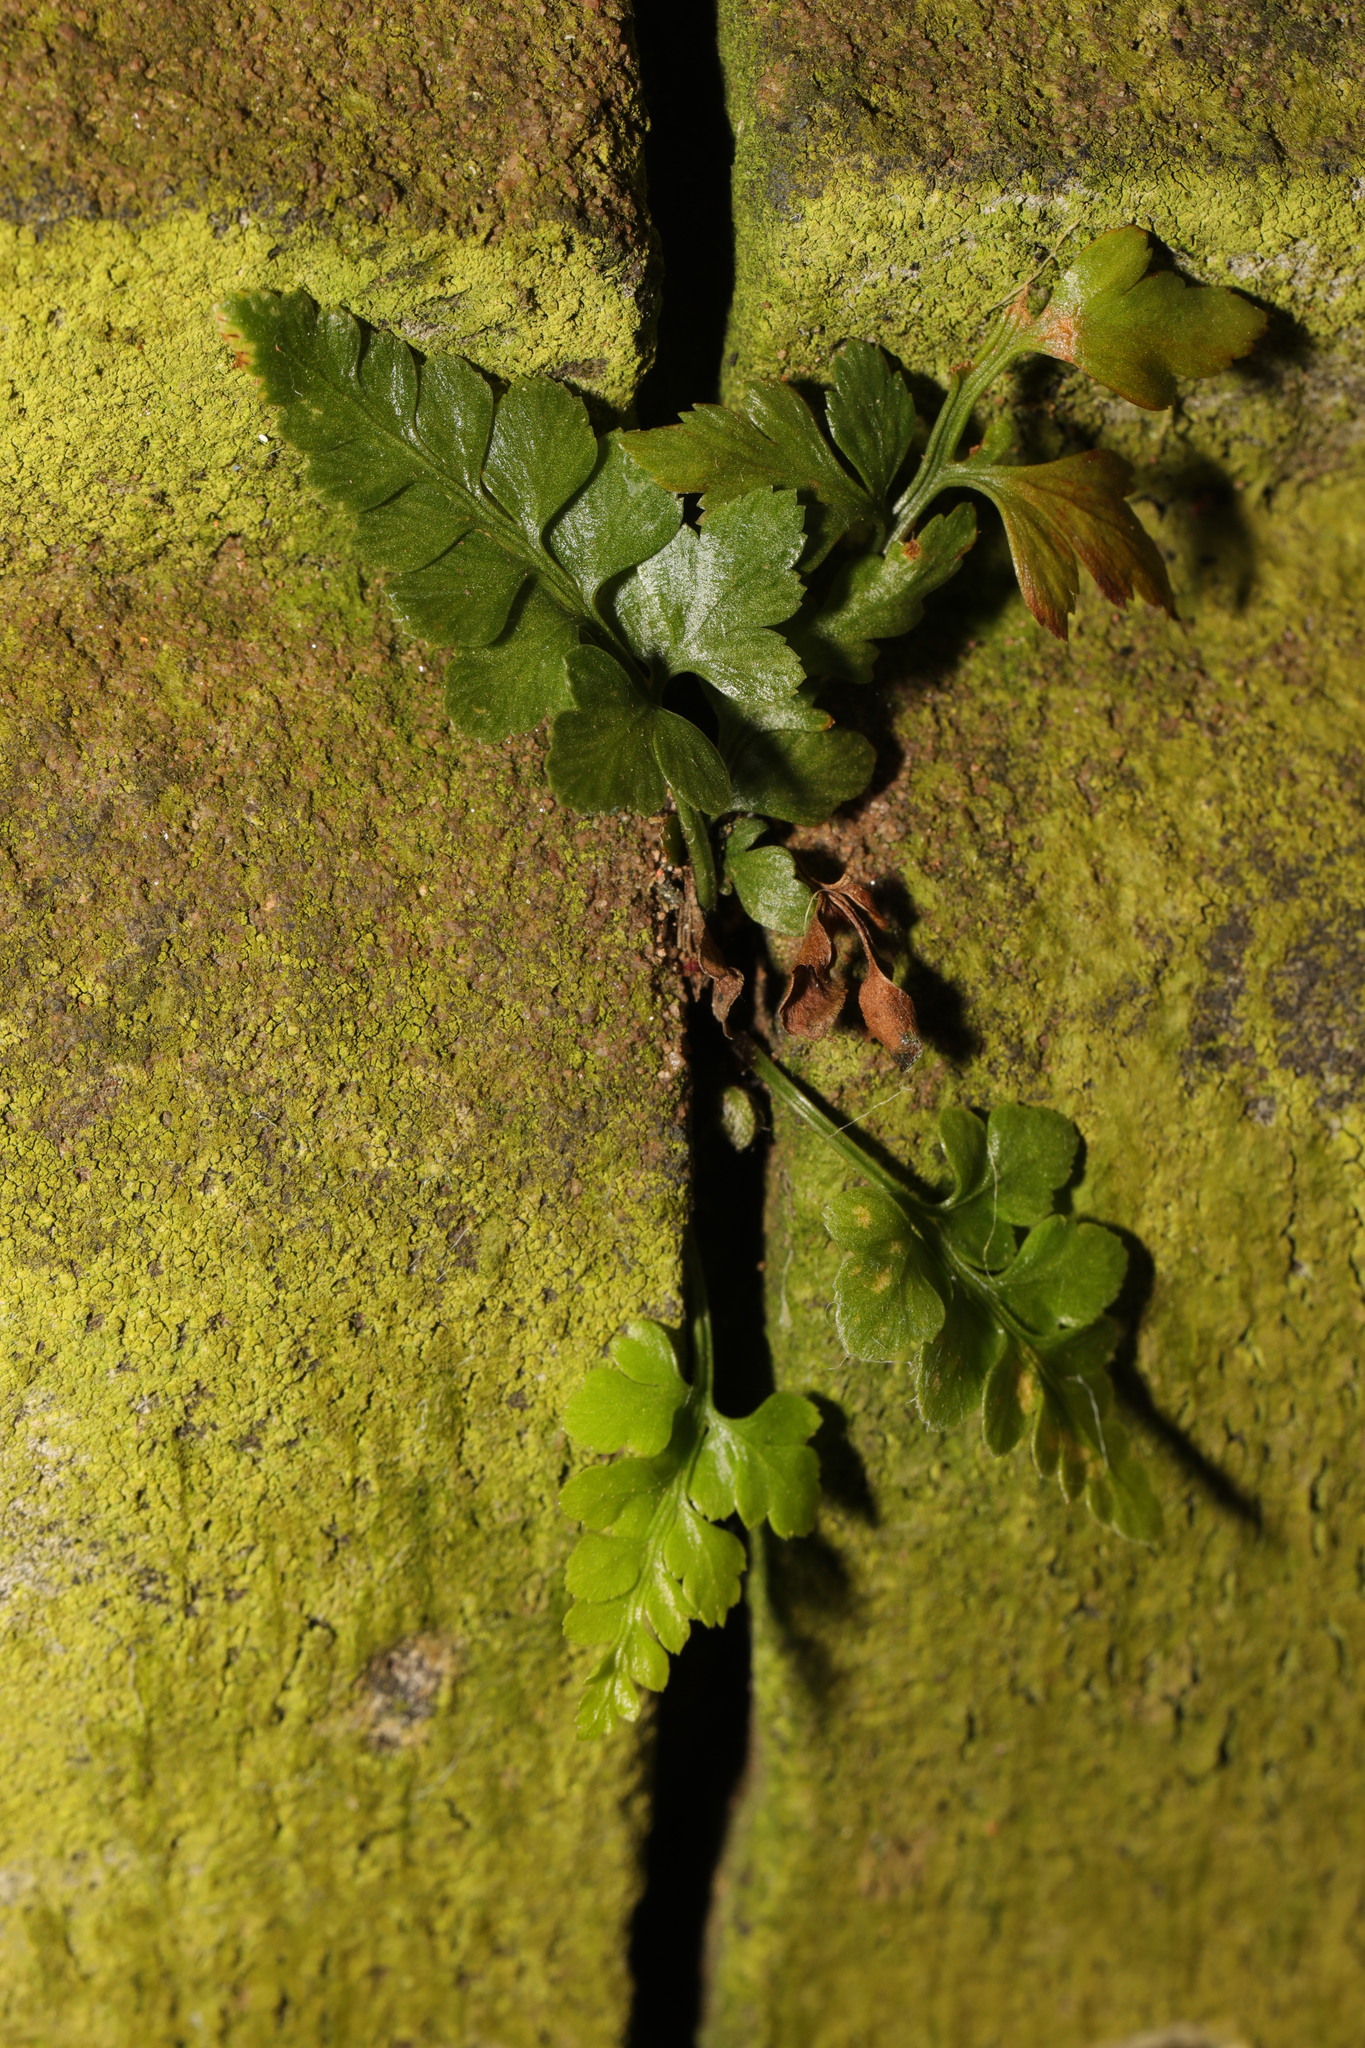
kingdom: Plantae
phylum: Tracheophyta
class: Polypodiopsida
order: Polypodiales
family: Aspleniaceae
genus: Asplenium
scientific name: Asplenium adiantum-nigrum
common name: Black spleenwort
